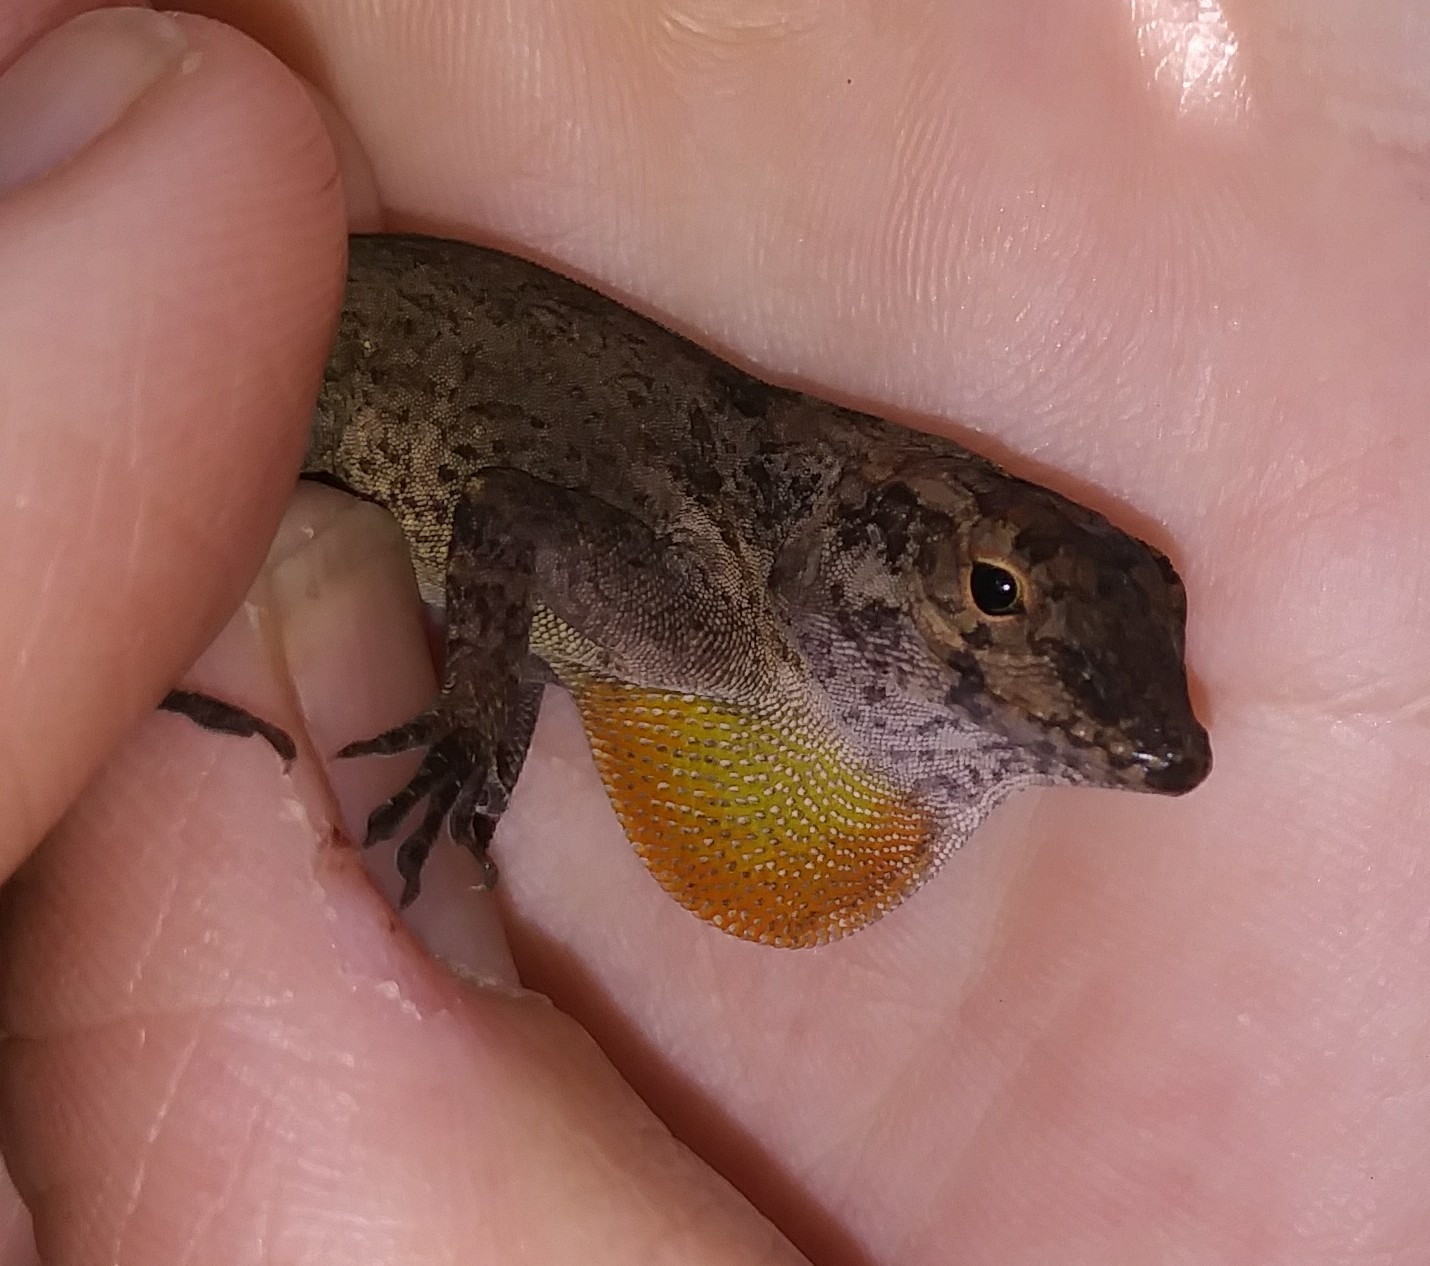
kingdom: Animalia
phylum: Chordata
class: Squamata
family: Dactyloidae
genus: Anolis
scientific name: Anolis cristatellus
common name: Crested anole
